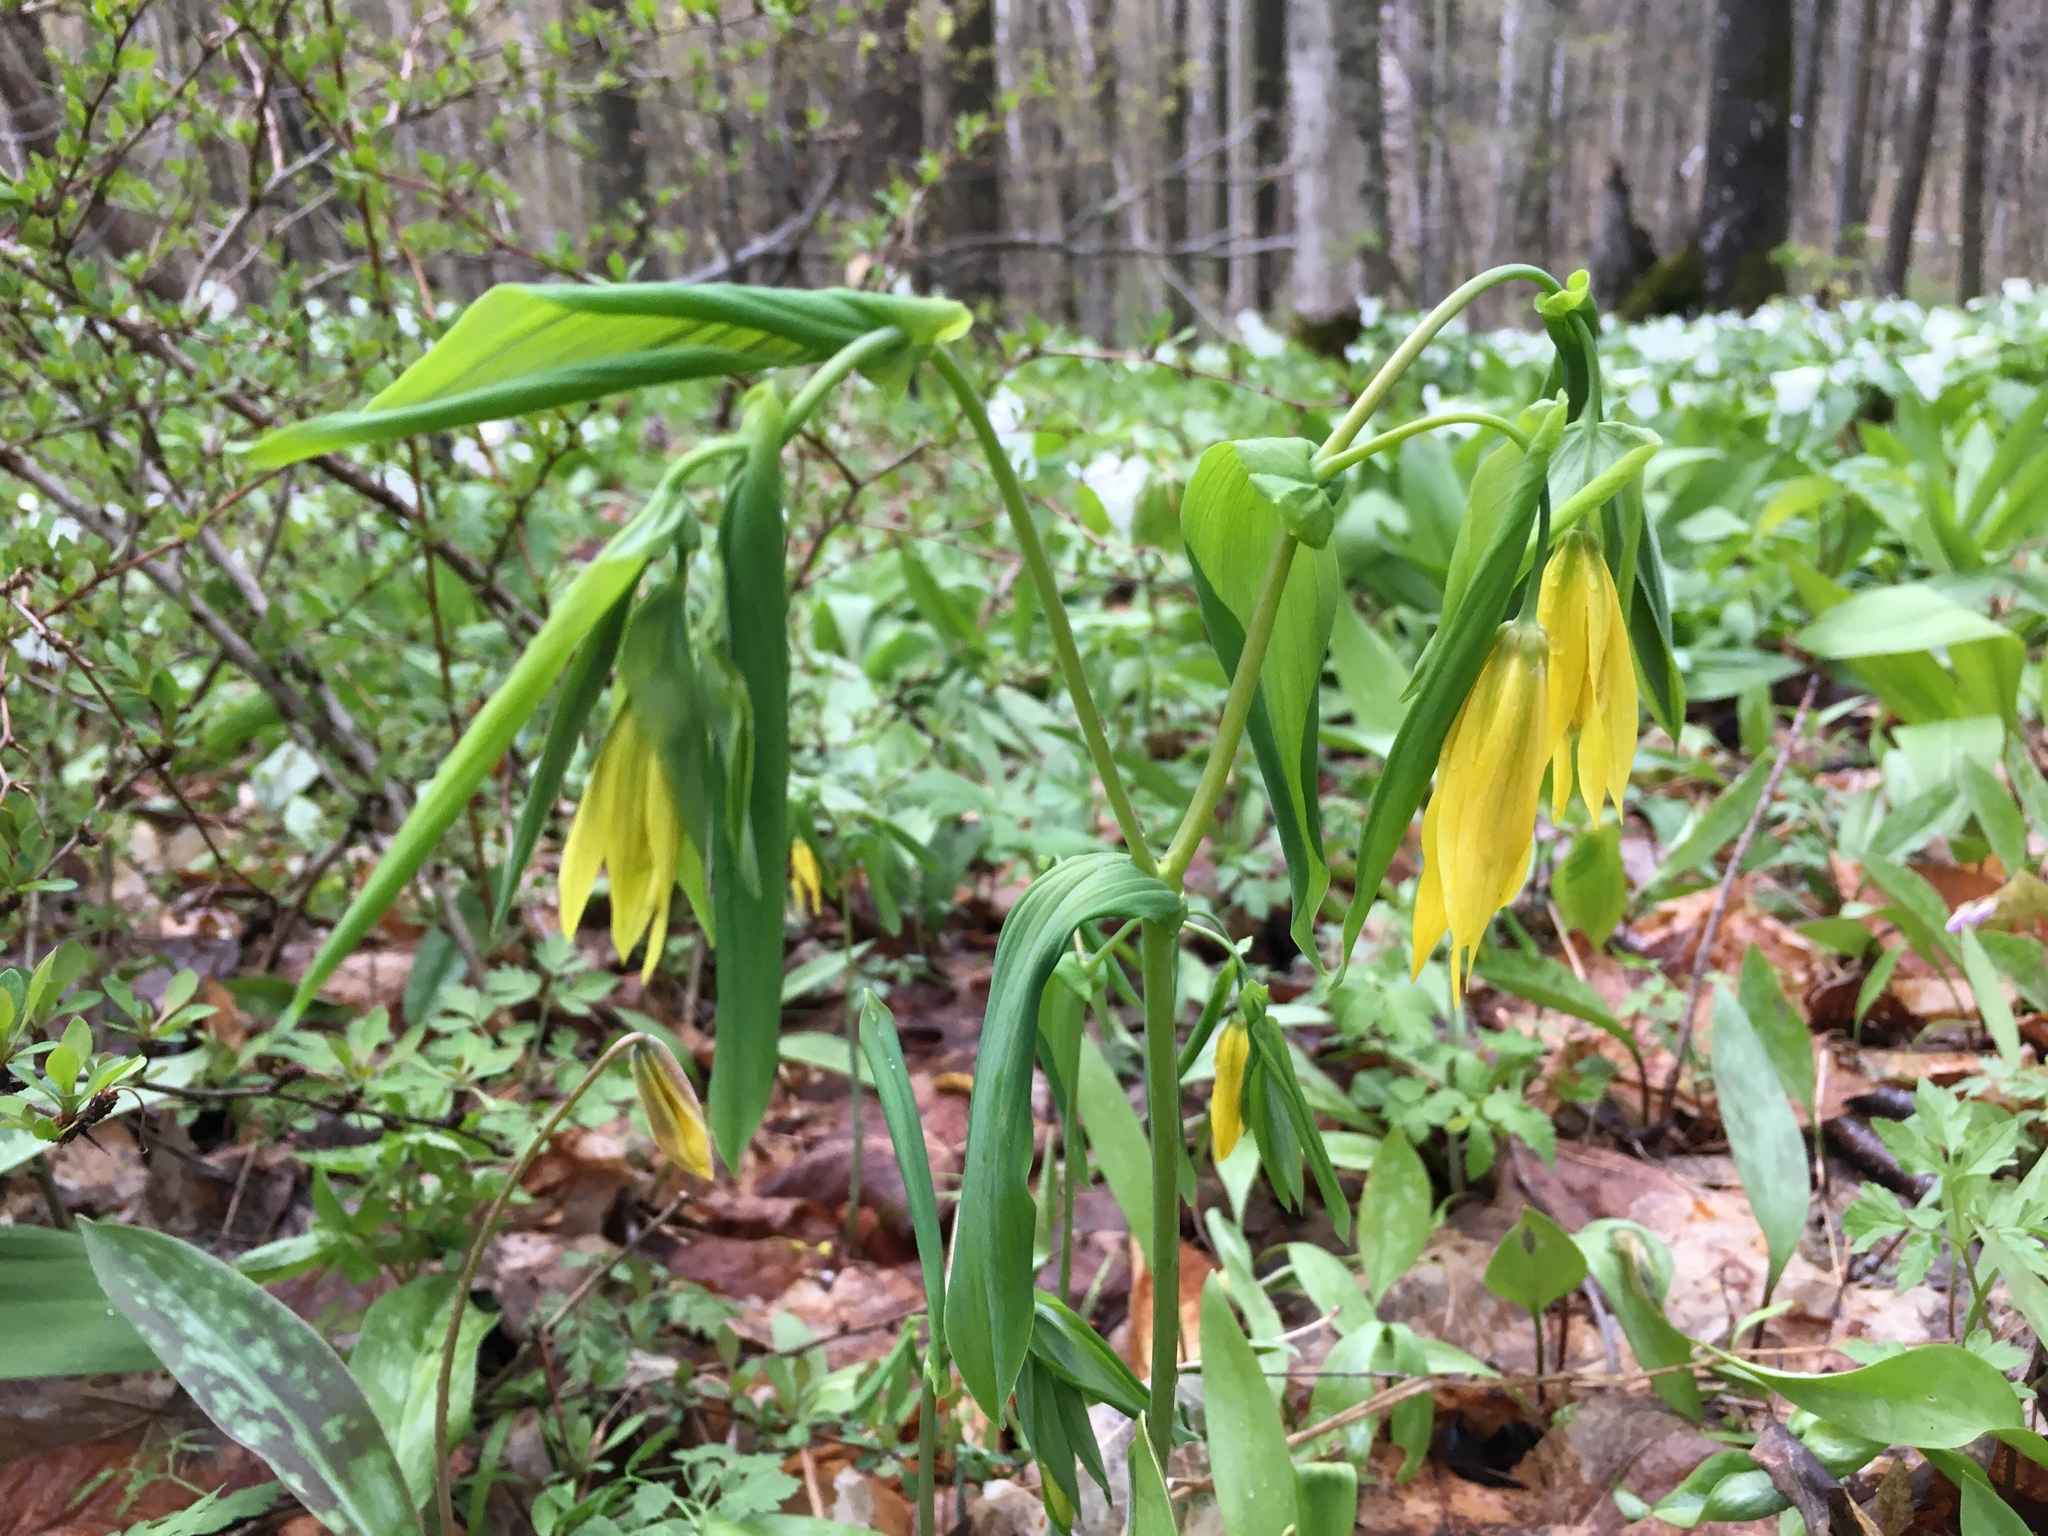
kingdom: Plantae
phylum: Tracheophyta
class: Liliopsida
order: Liliales
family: Colchicaceae
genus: Uvularia
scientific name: Uvularia grandiflora
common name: Bellwort
